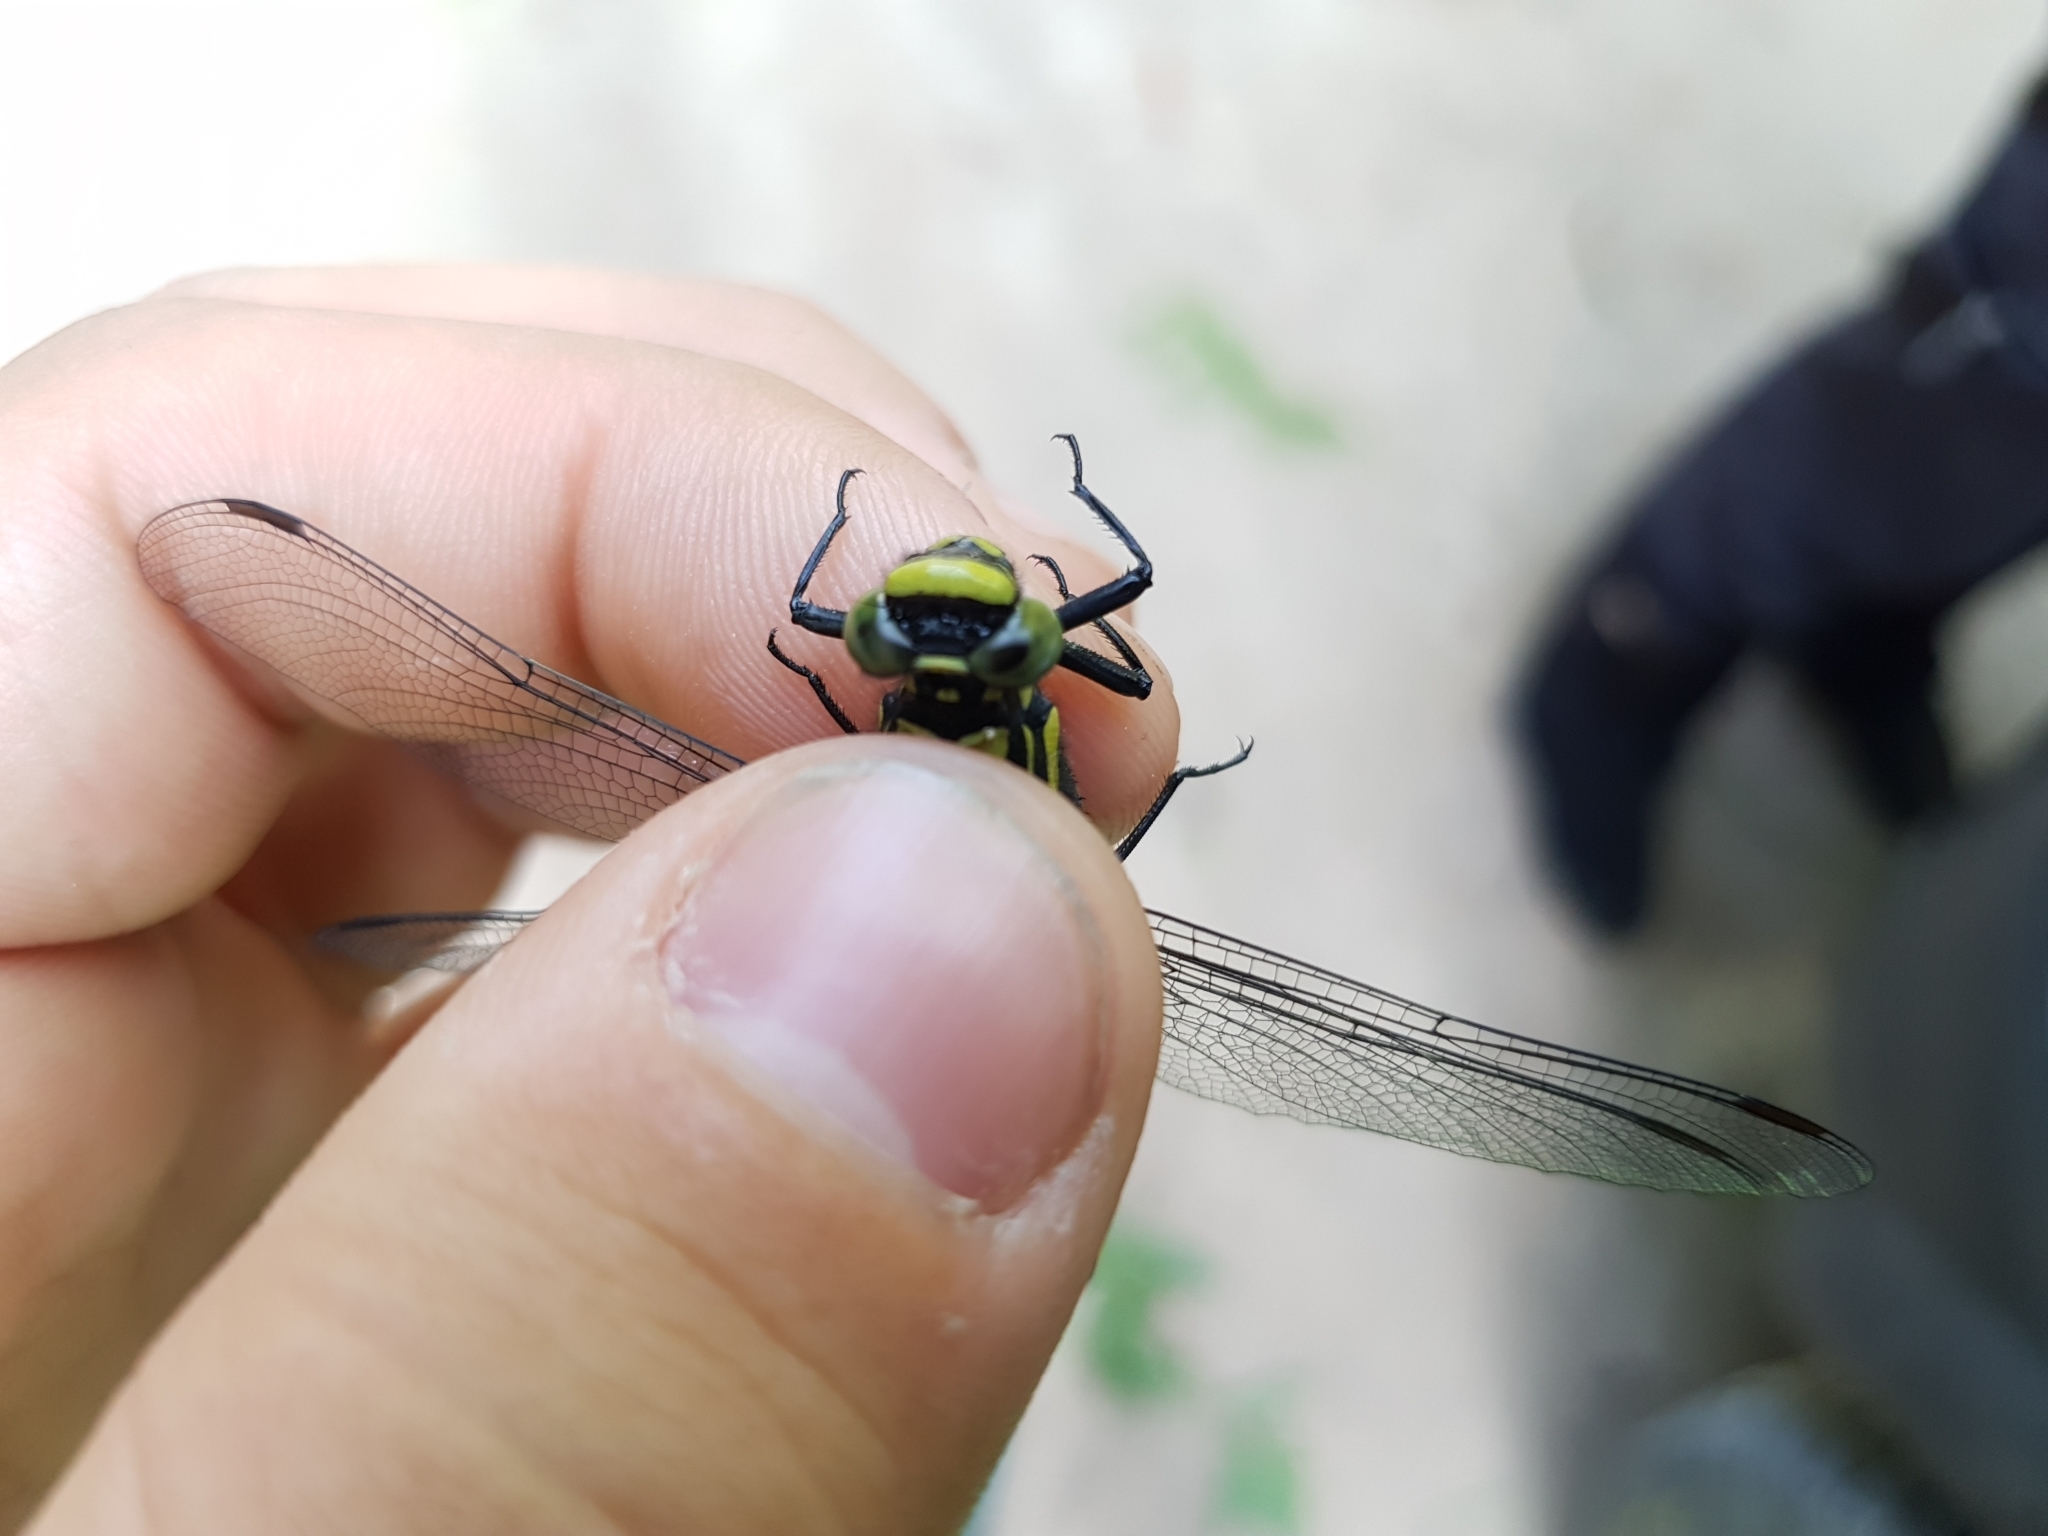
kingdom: Animalia
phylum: Arthropoda
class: Insecta
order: Odonata
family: Gomphidae
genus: Gomphus
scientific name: Gomphus vulgatissimus
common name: Club-tailed dragonfly
